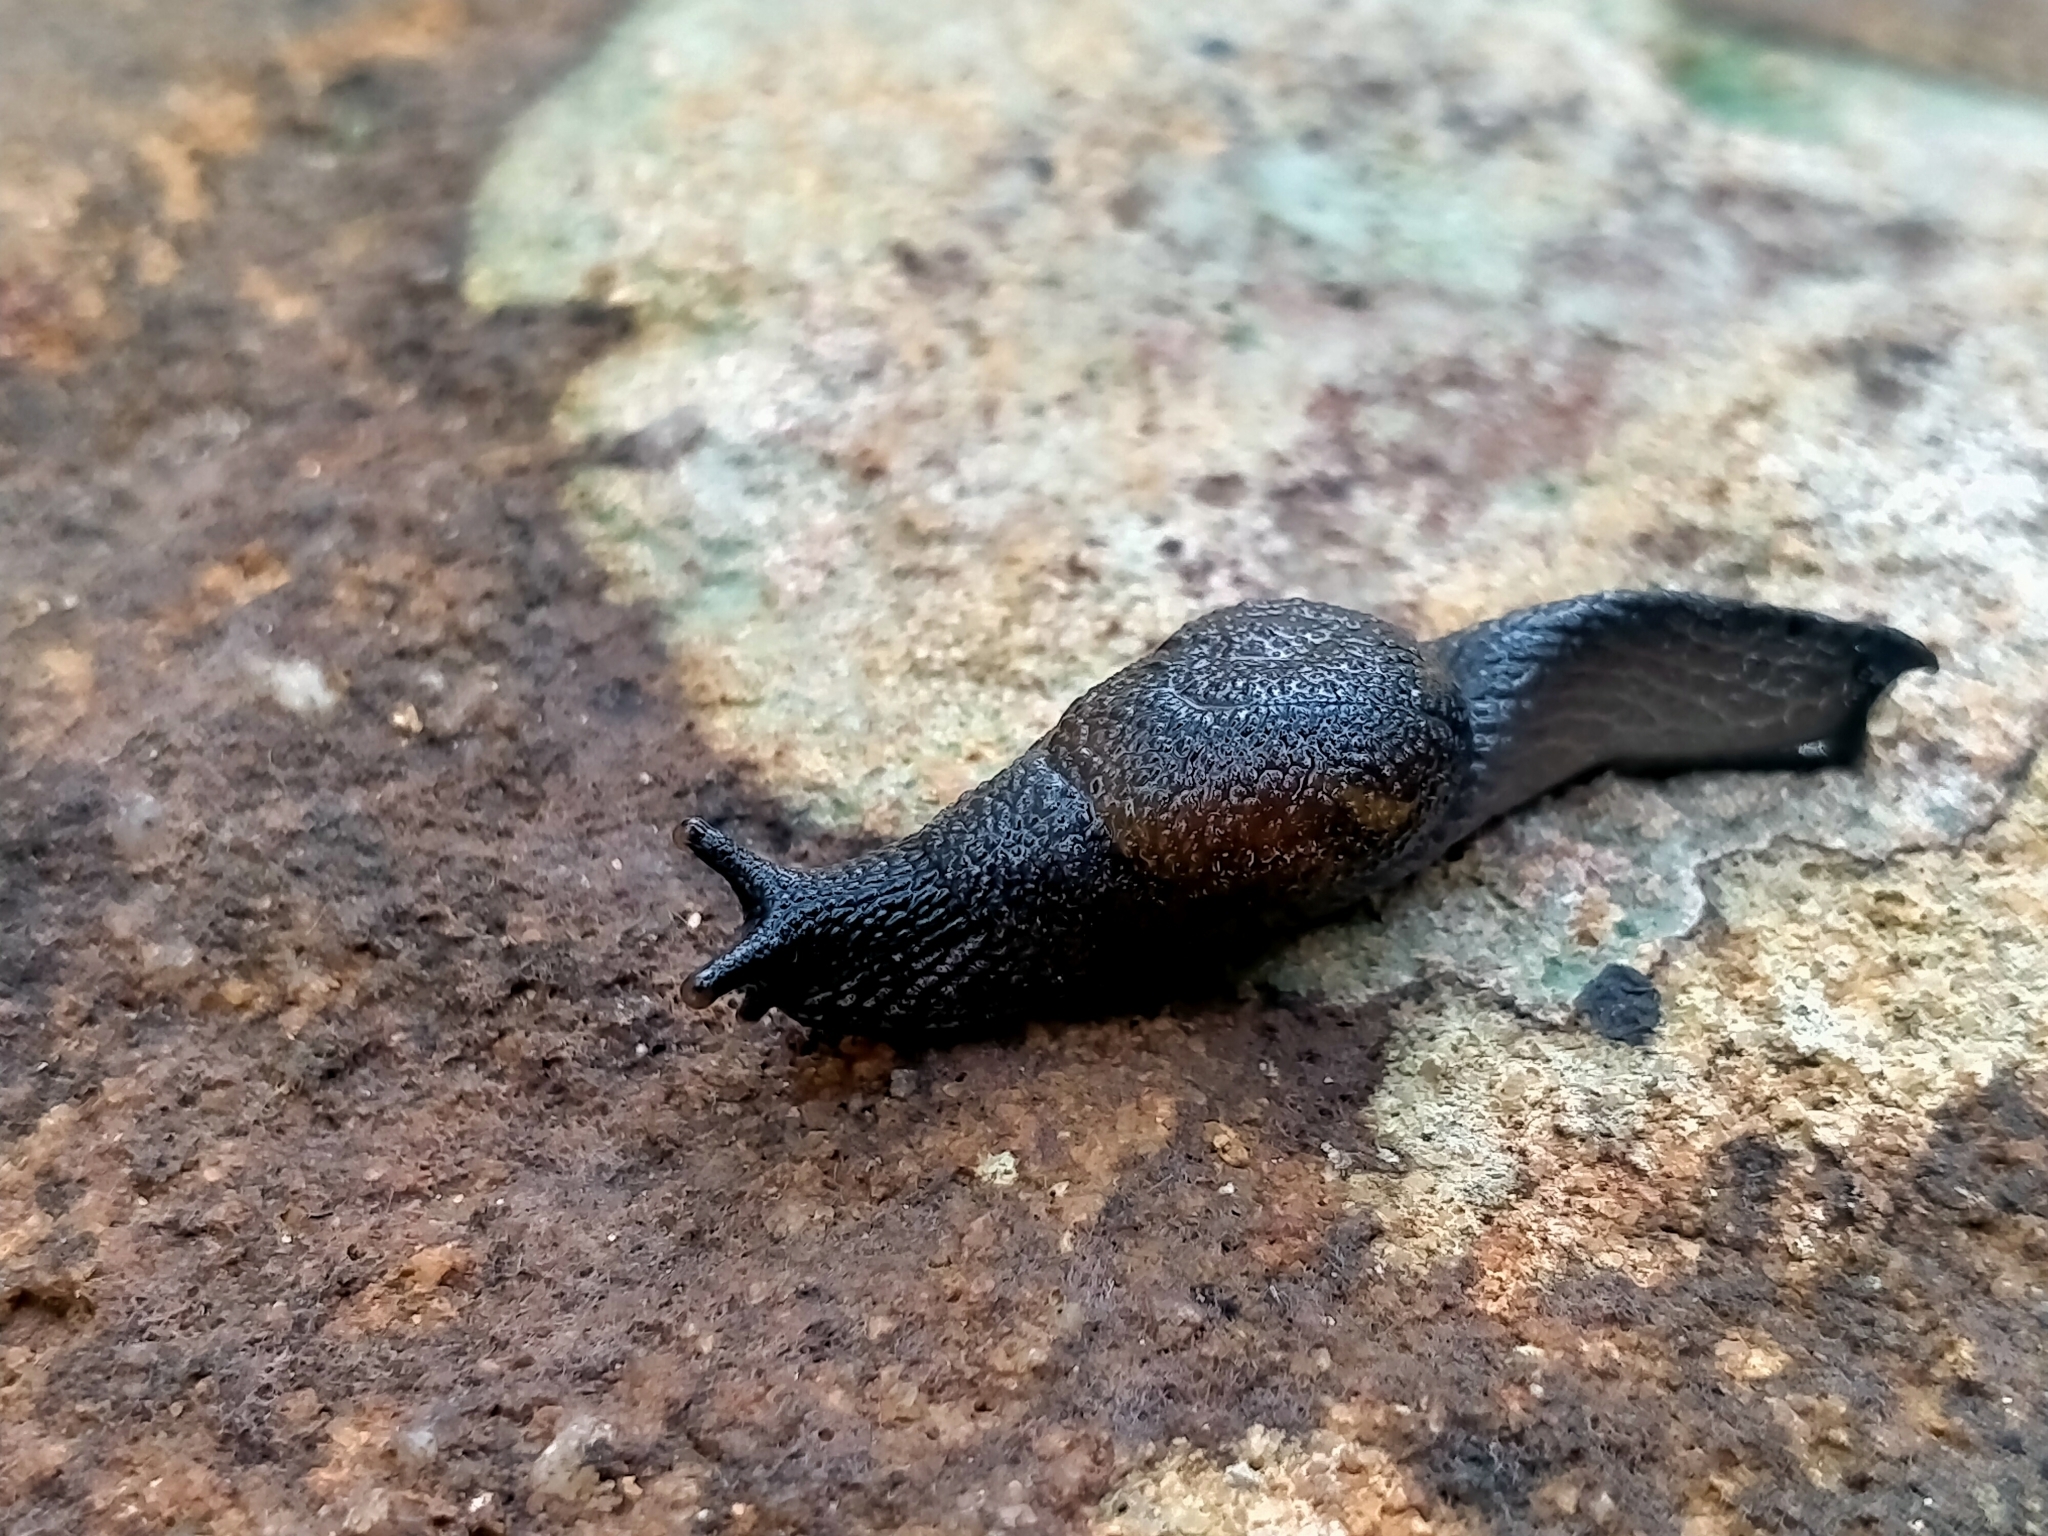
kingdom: Animalia
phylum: Mollusca
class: Gastropoda
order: Stylommatophora
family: Helicarionidae
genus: Helicarion
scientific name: Helicarion cuvieri
